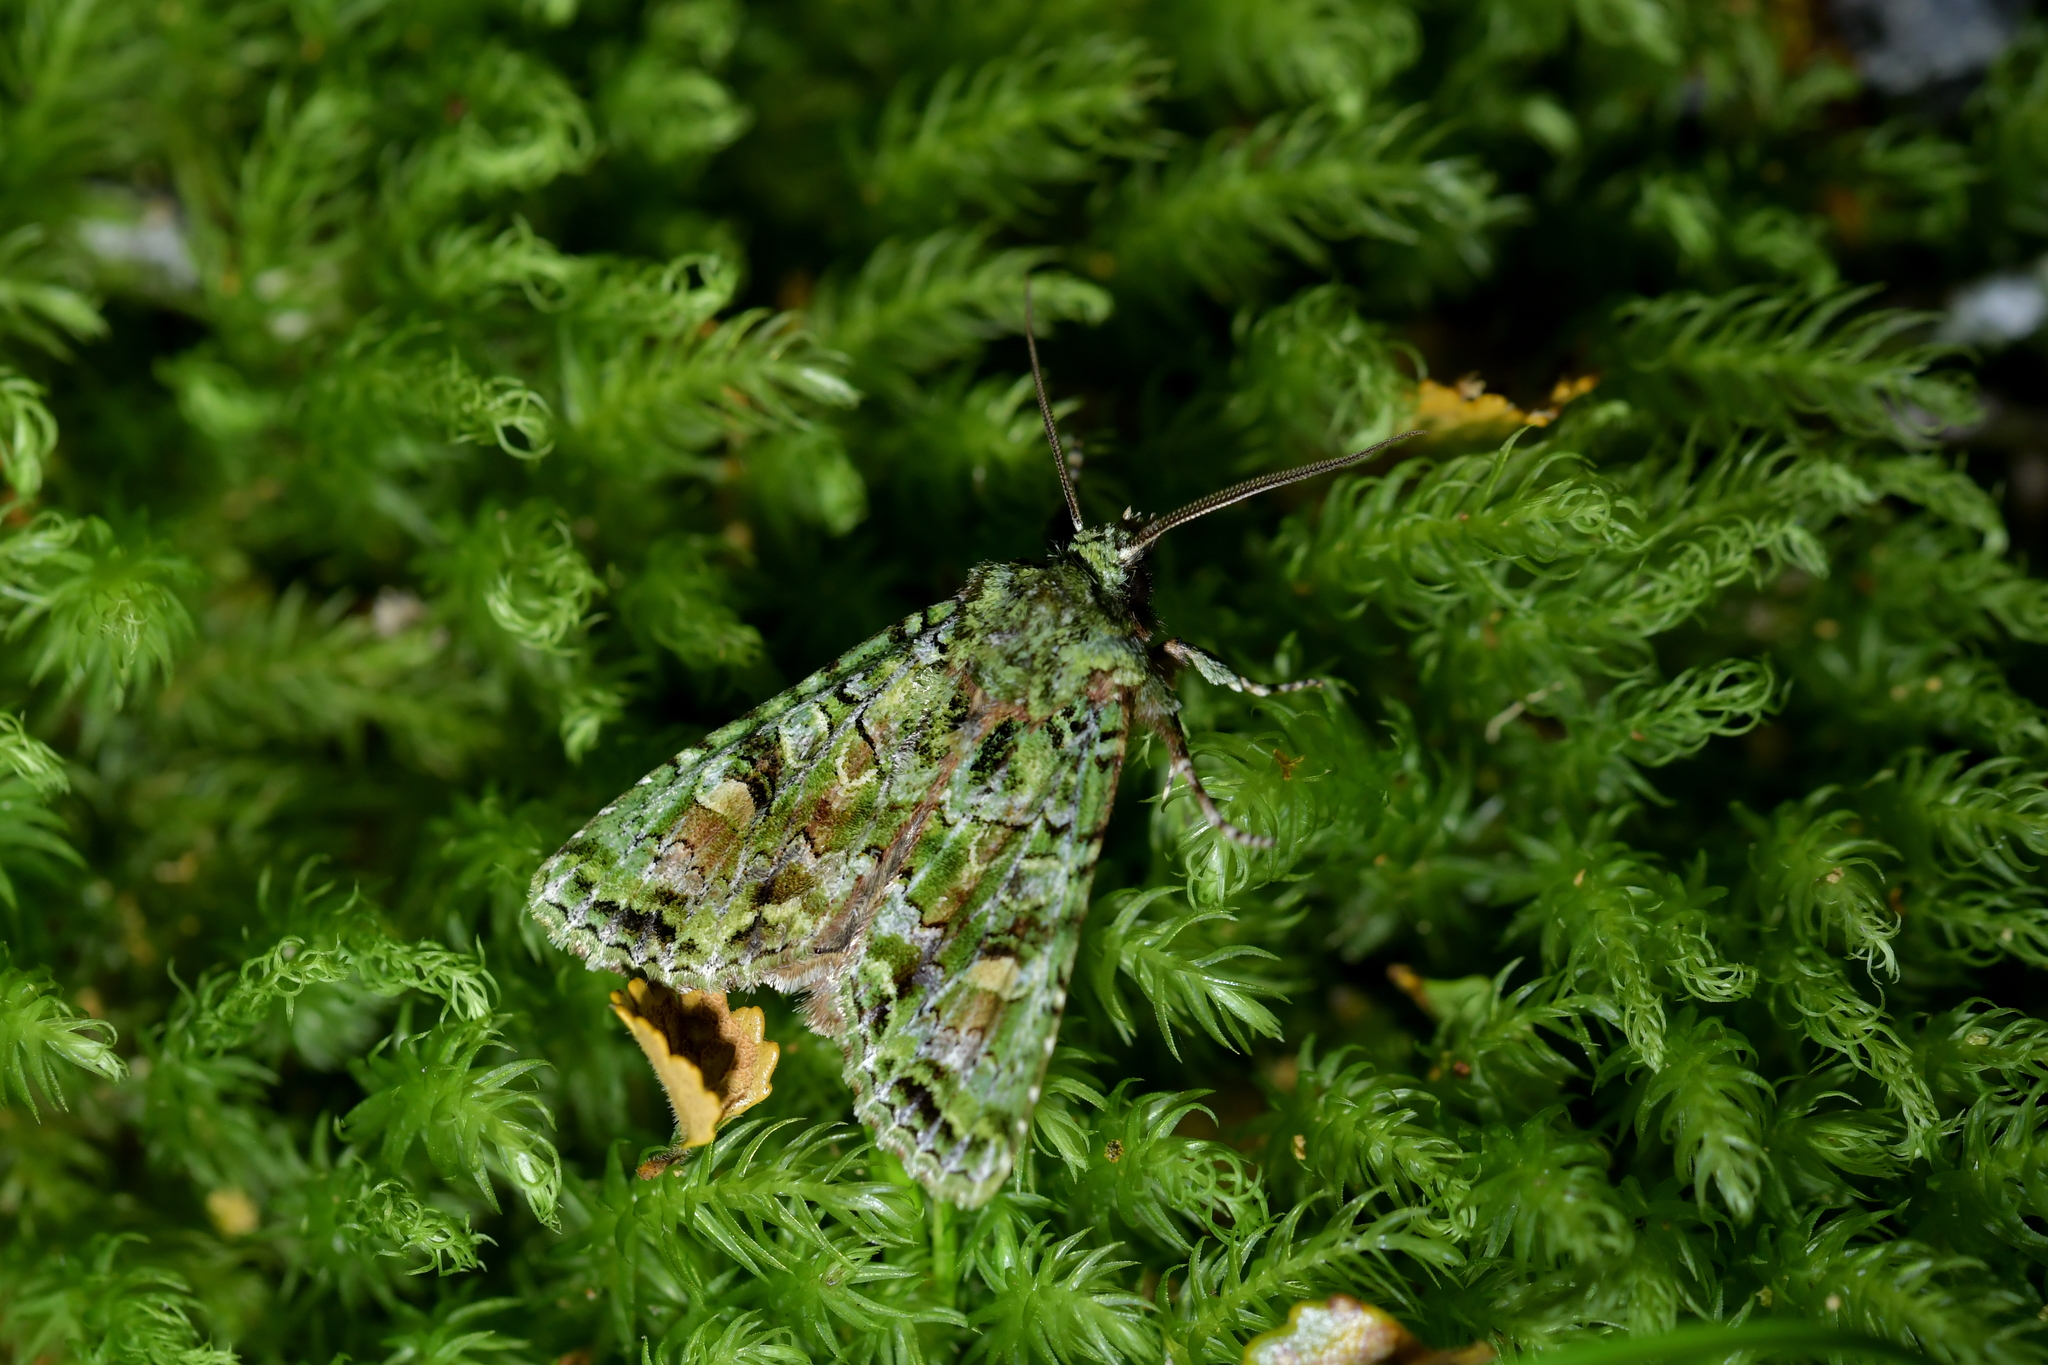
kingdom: Animalia
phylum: Arthropoda
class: Insecta
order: Lepidoptera
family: Noctuidae
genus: Ichneutica
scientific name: Ichneutica
